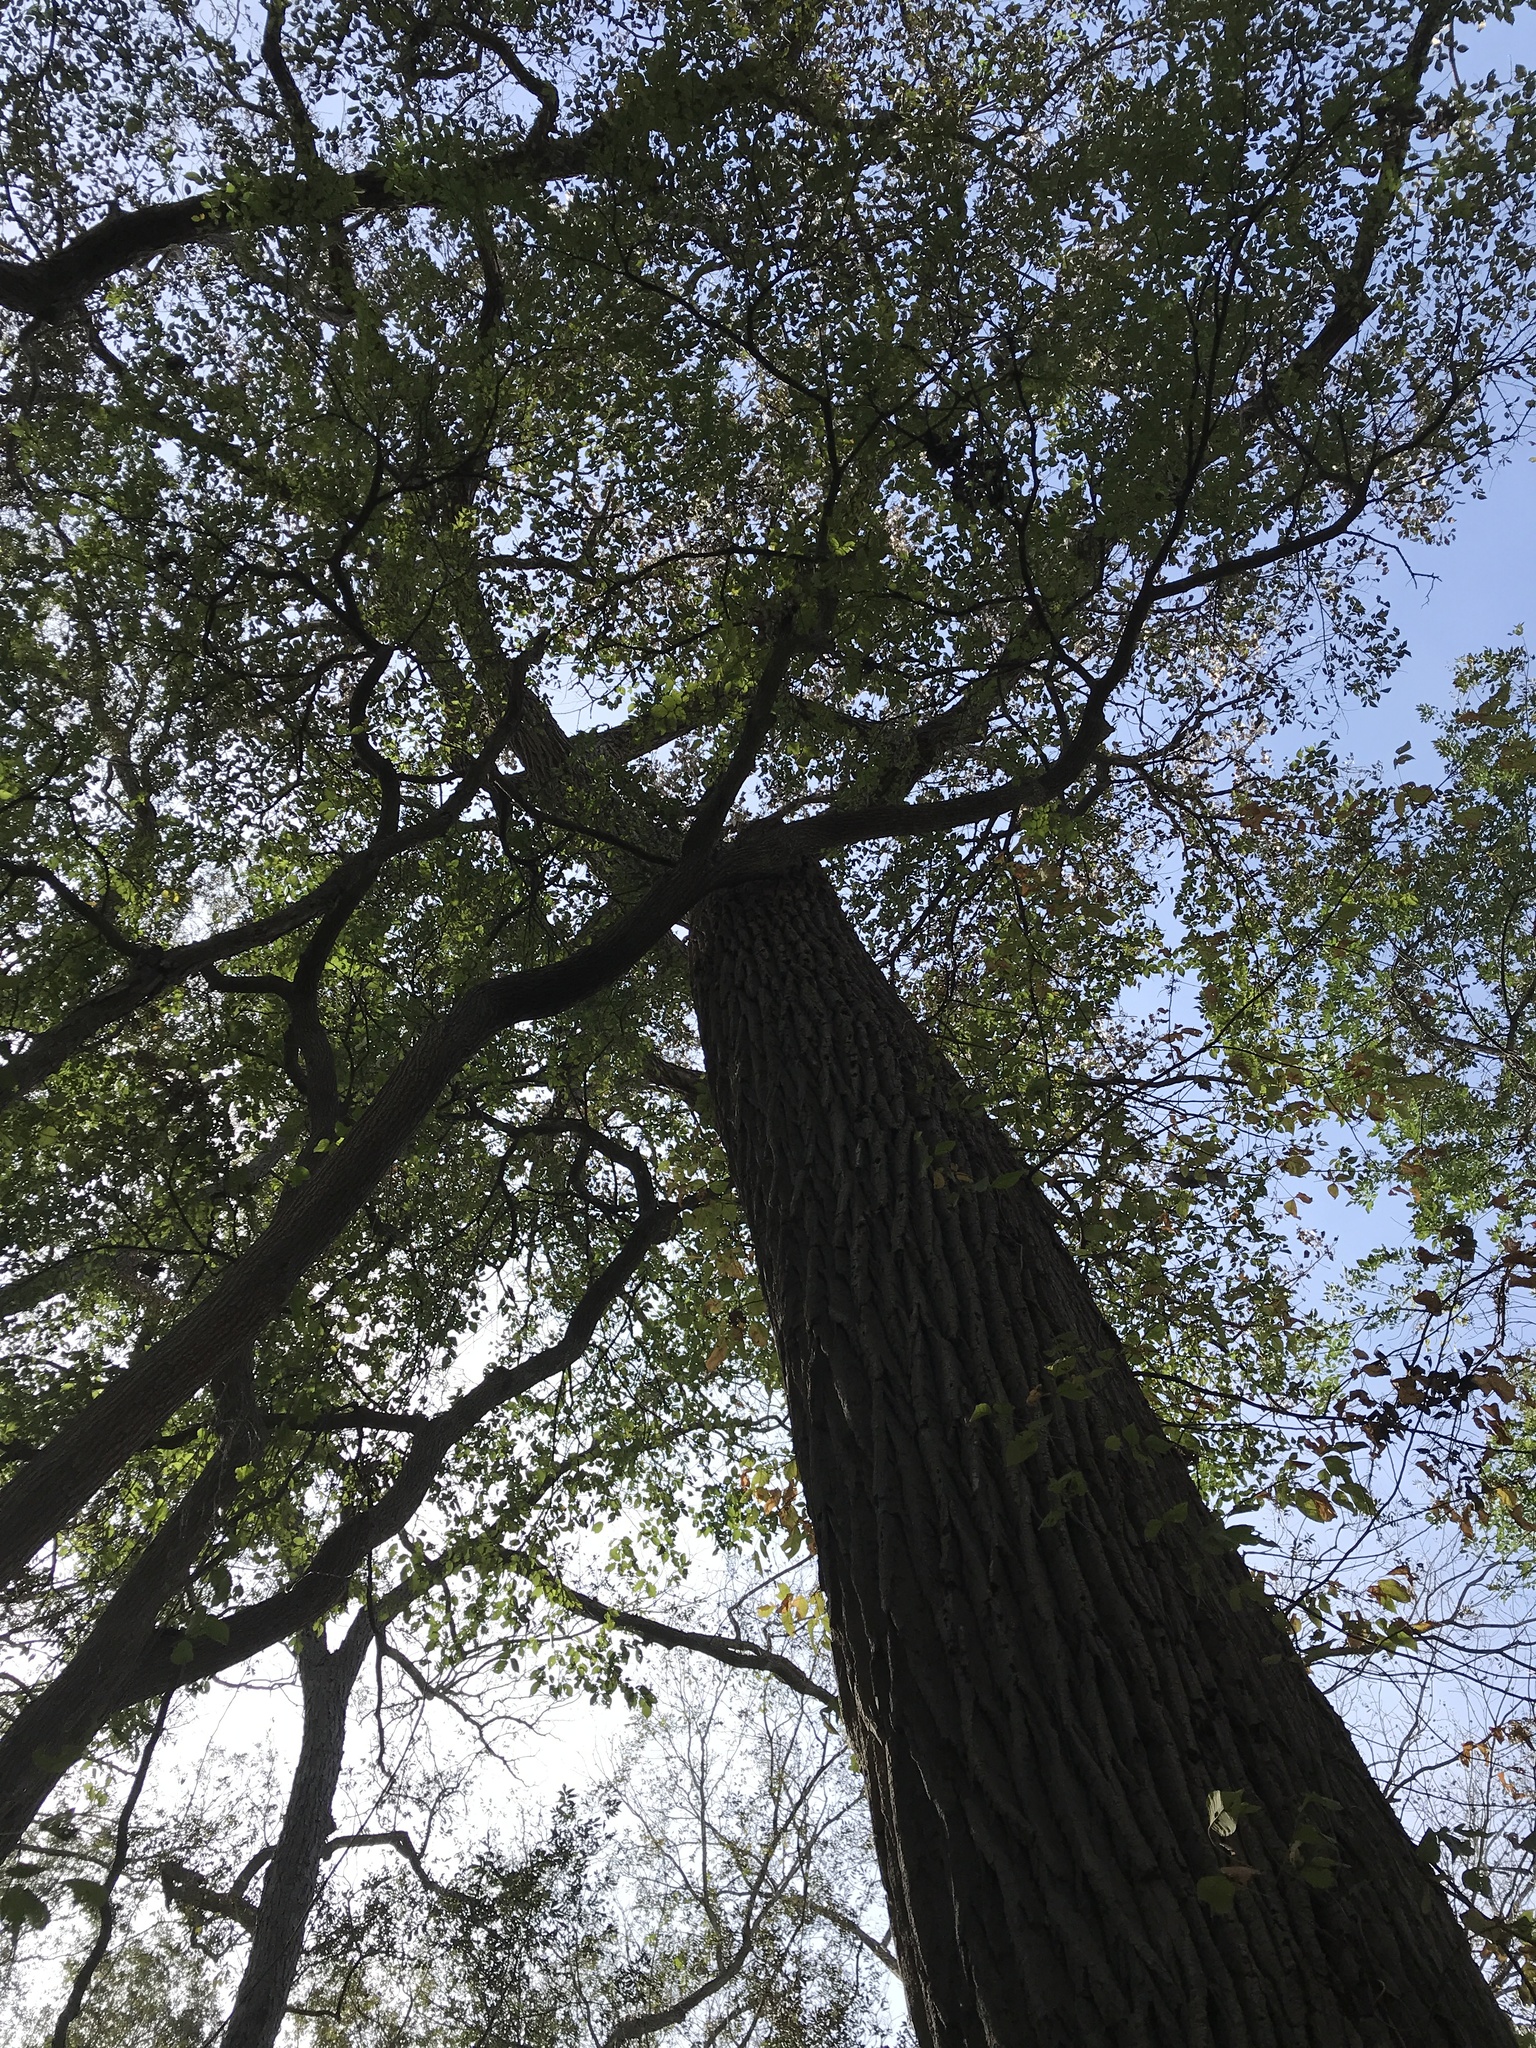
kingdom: Plantae
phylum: Tracheophyta
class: Magnoliopsida
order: Malpighiales
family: Salicaceae
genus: Populus
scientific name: Populus deltoides
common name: Eastern cottonwood
